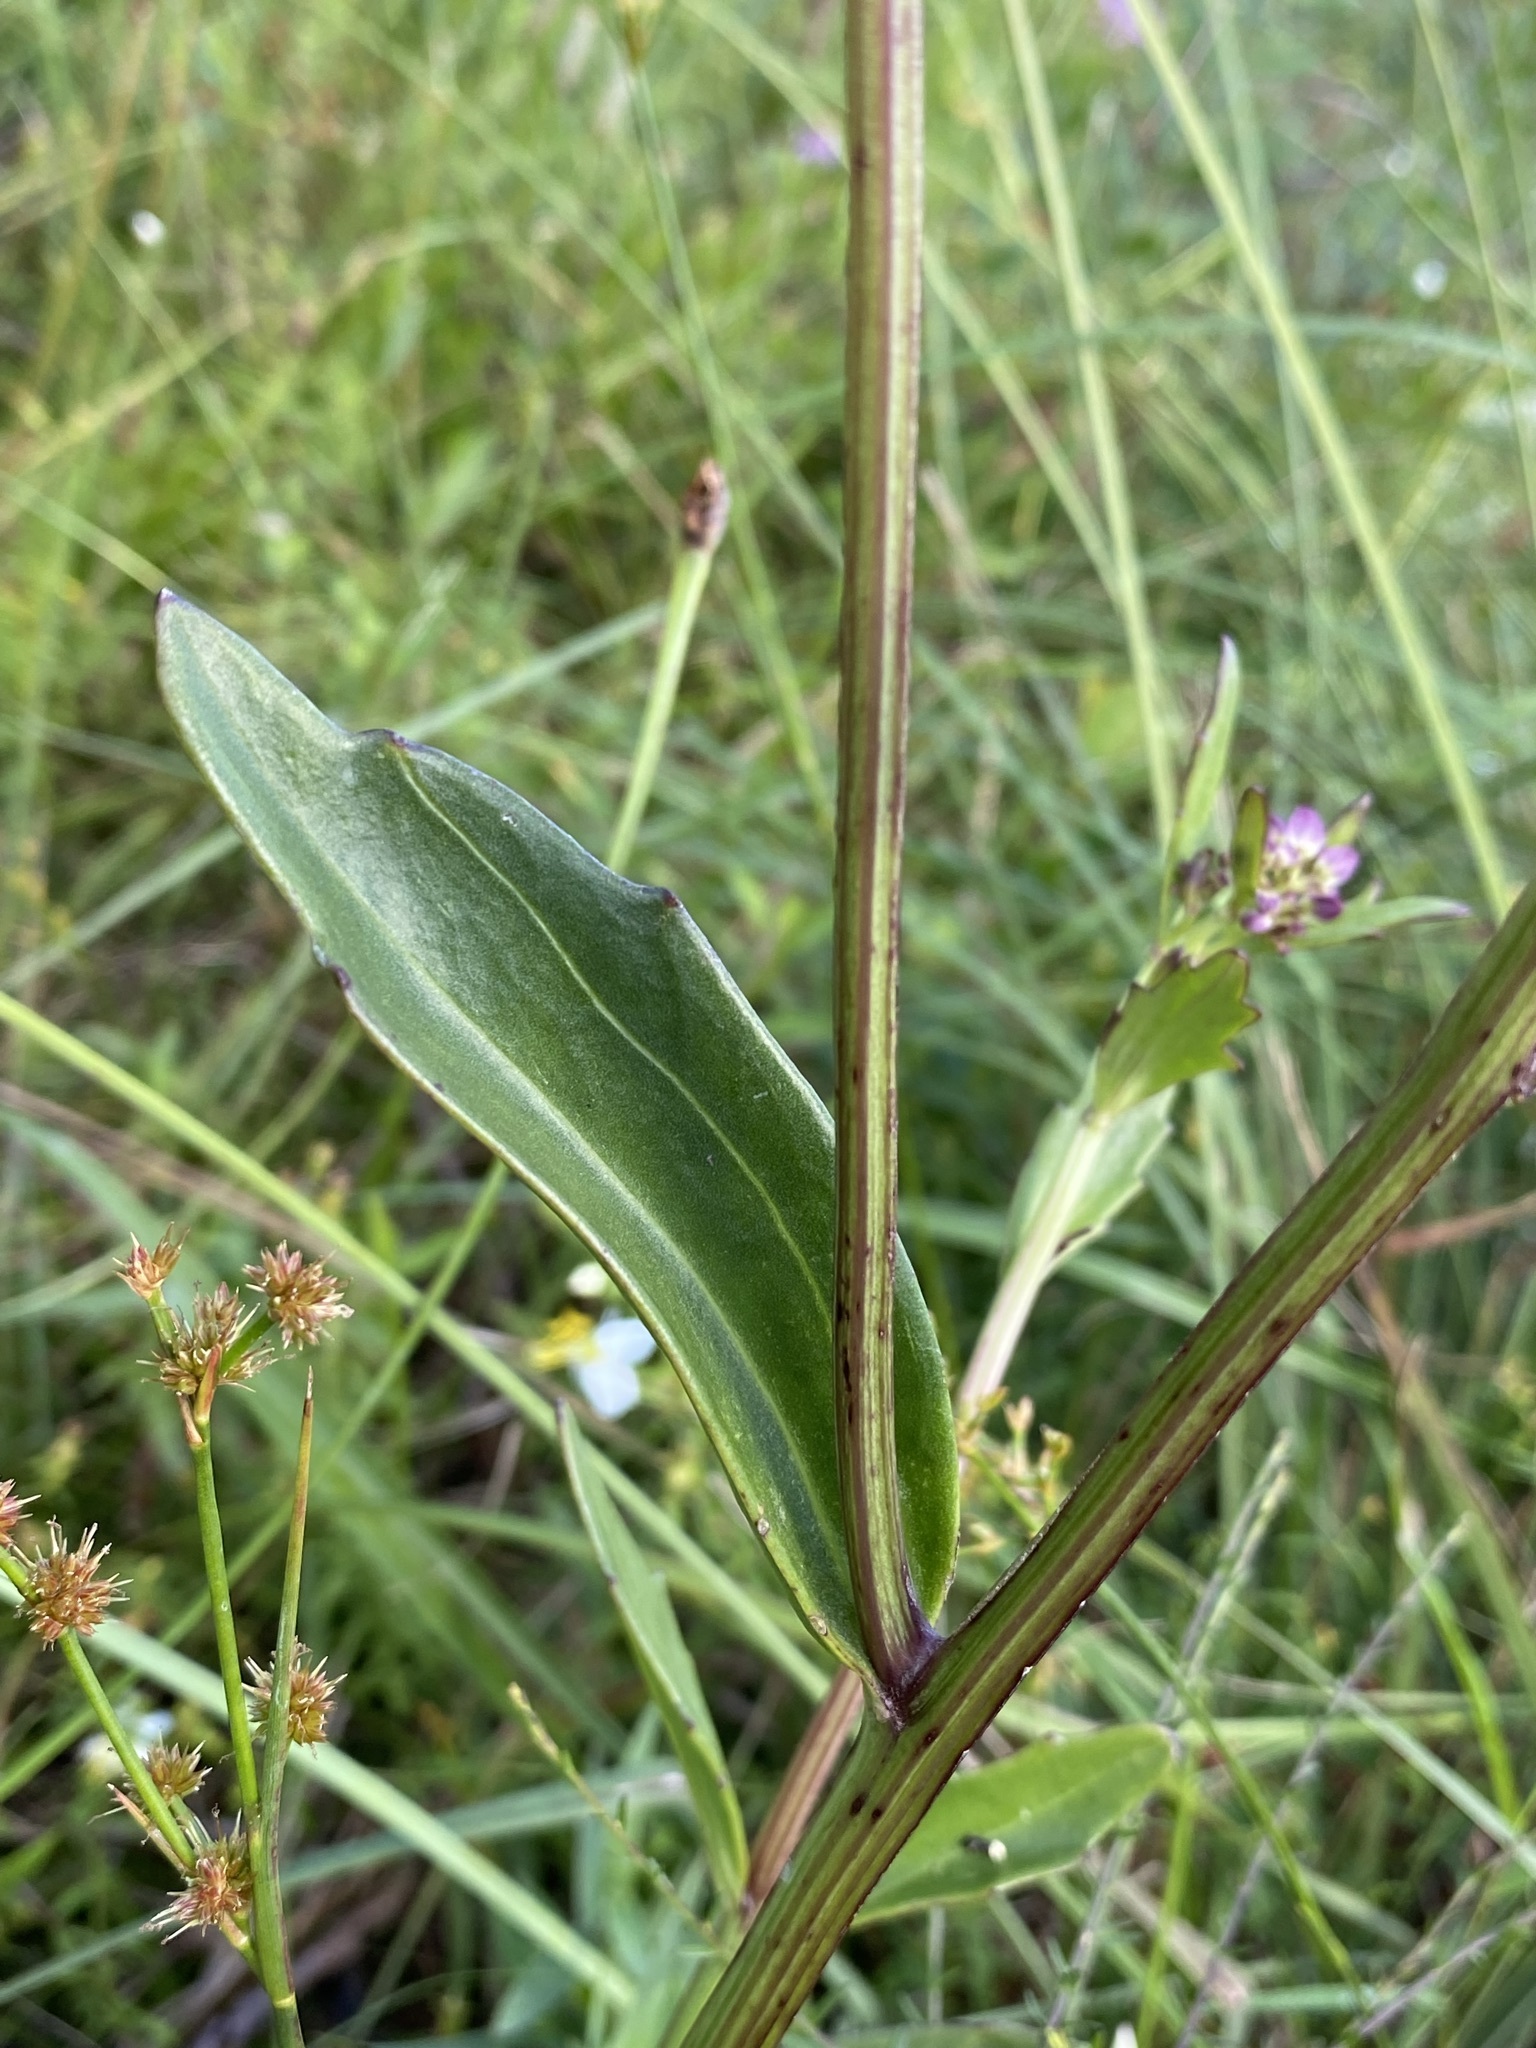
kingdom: Plantae
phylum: Tracheophyta
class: Magnoliopsida
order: Asterales
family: Asteraceae
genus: Arnoglossum
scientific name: Arnoglossum sulcatum
